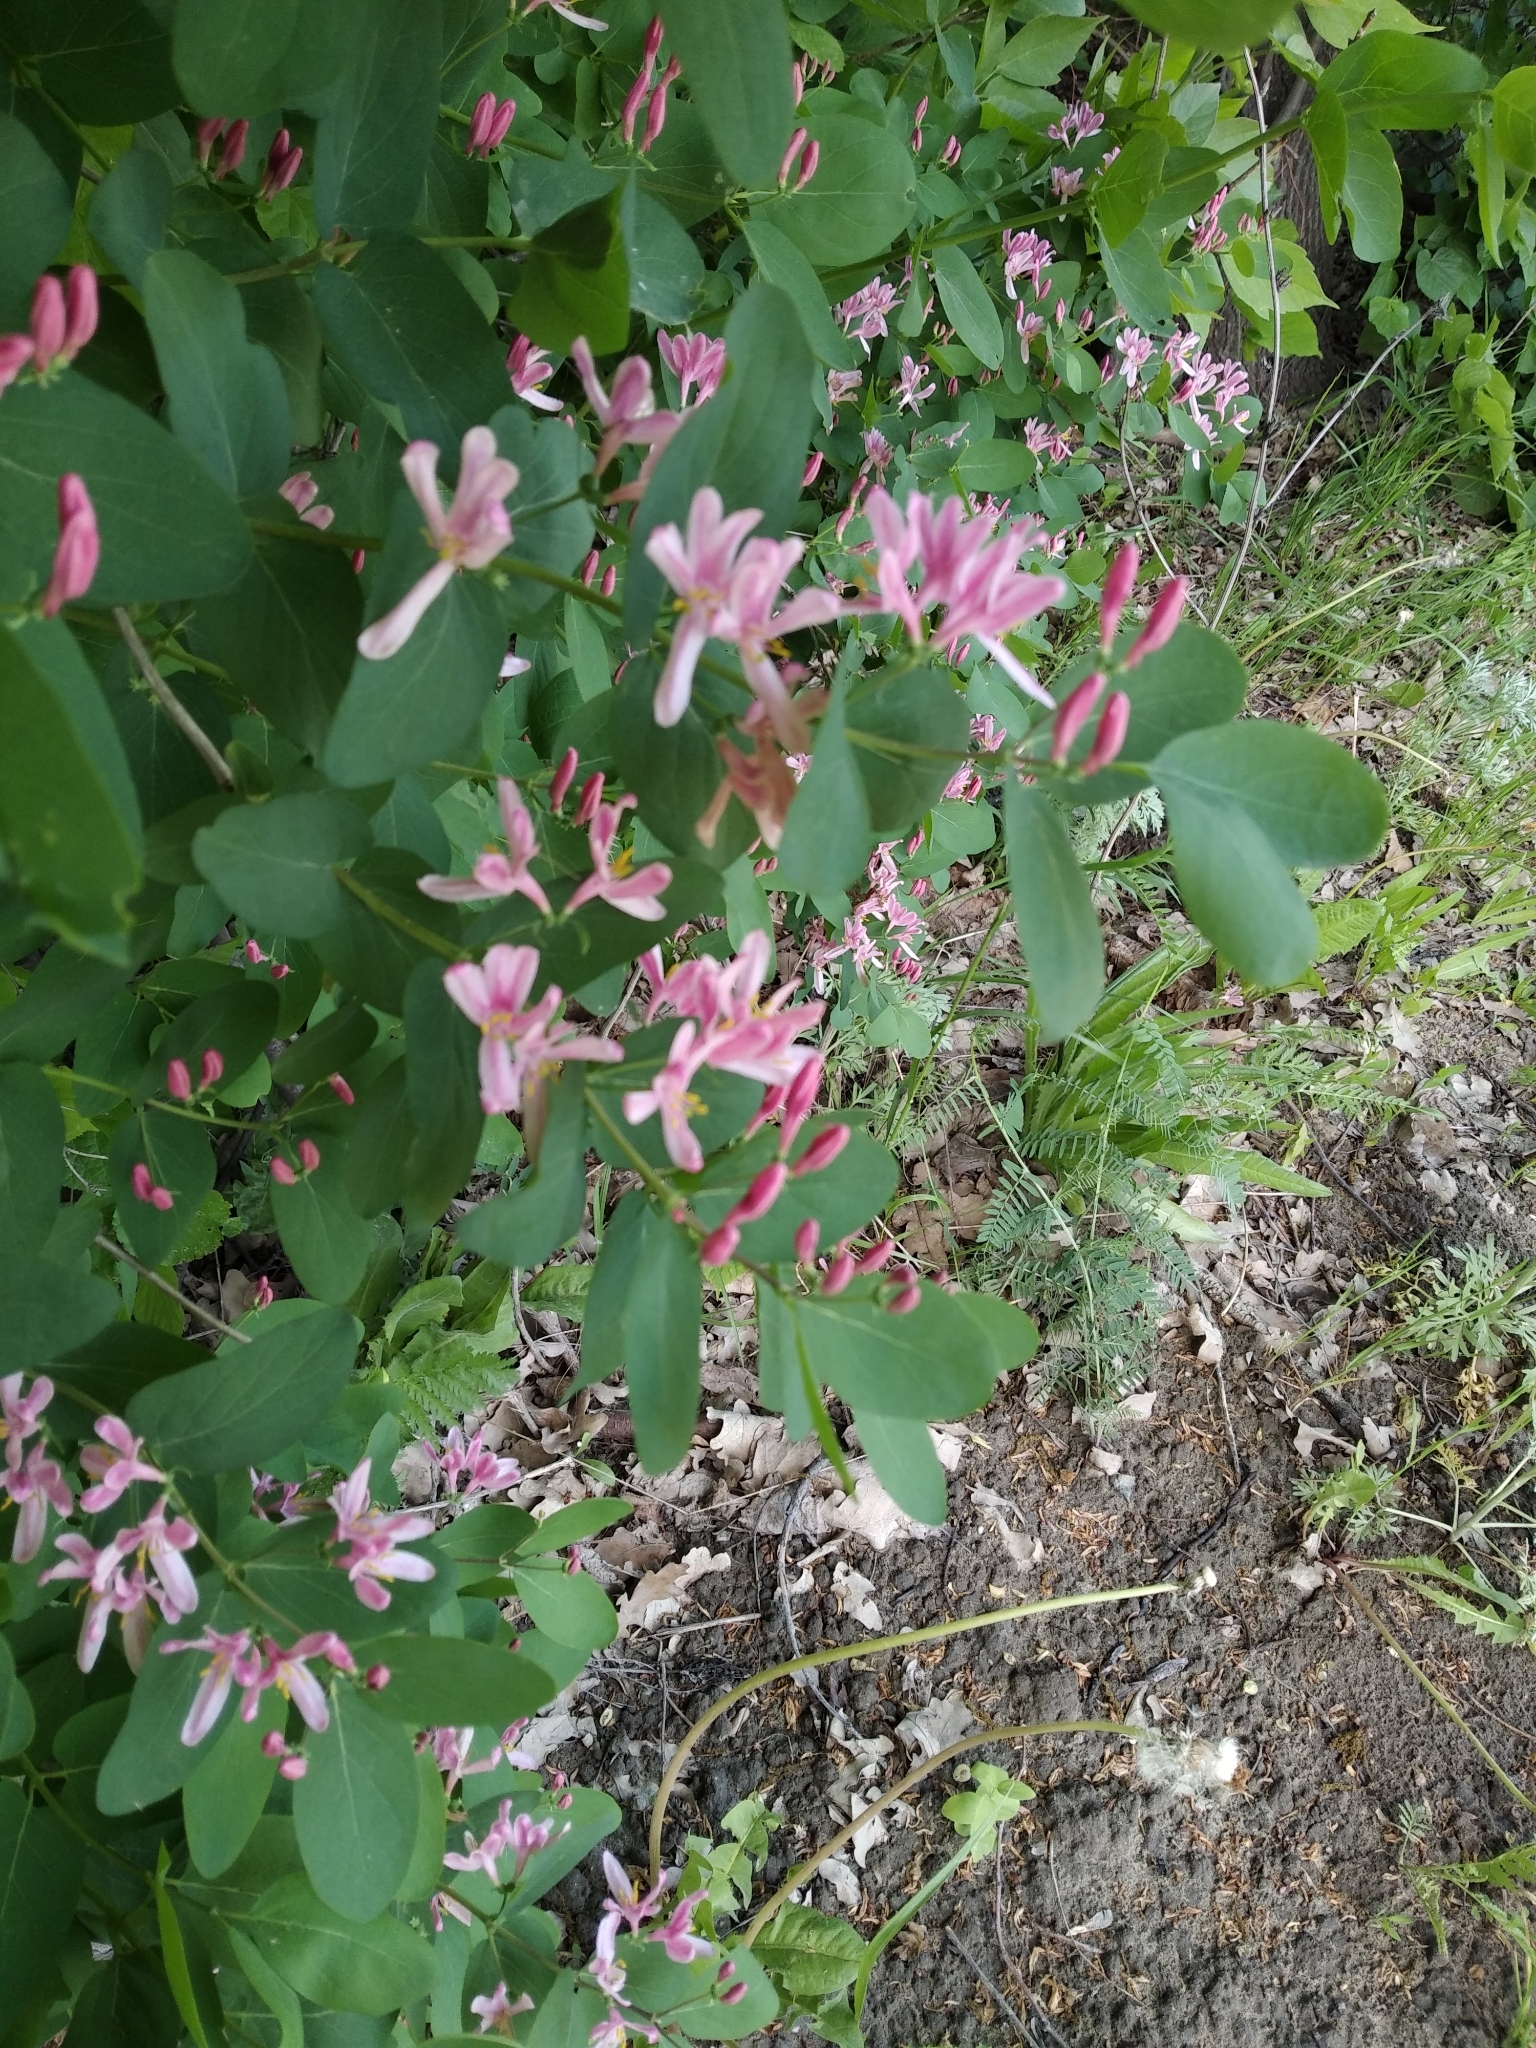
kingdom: Plantae
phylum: Tracheophyta
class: Magnoliopsida
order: Dipsacales
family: Caprifoliaceae
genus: Lonicera
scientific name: Lonicera tatarica
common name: Tatarian honeysuckle
